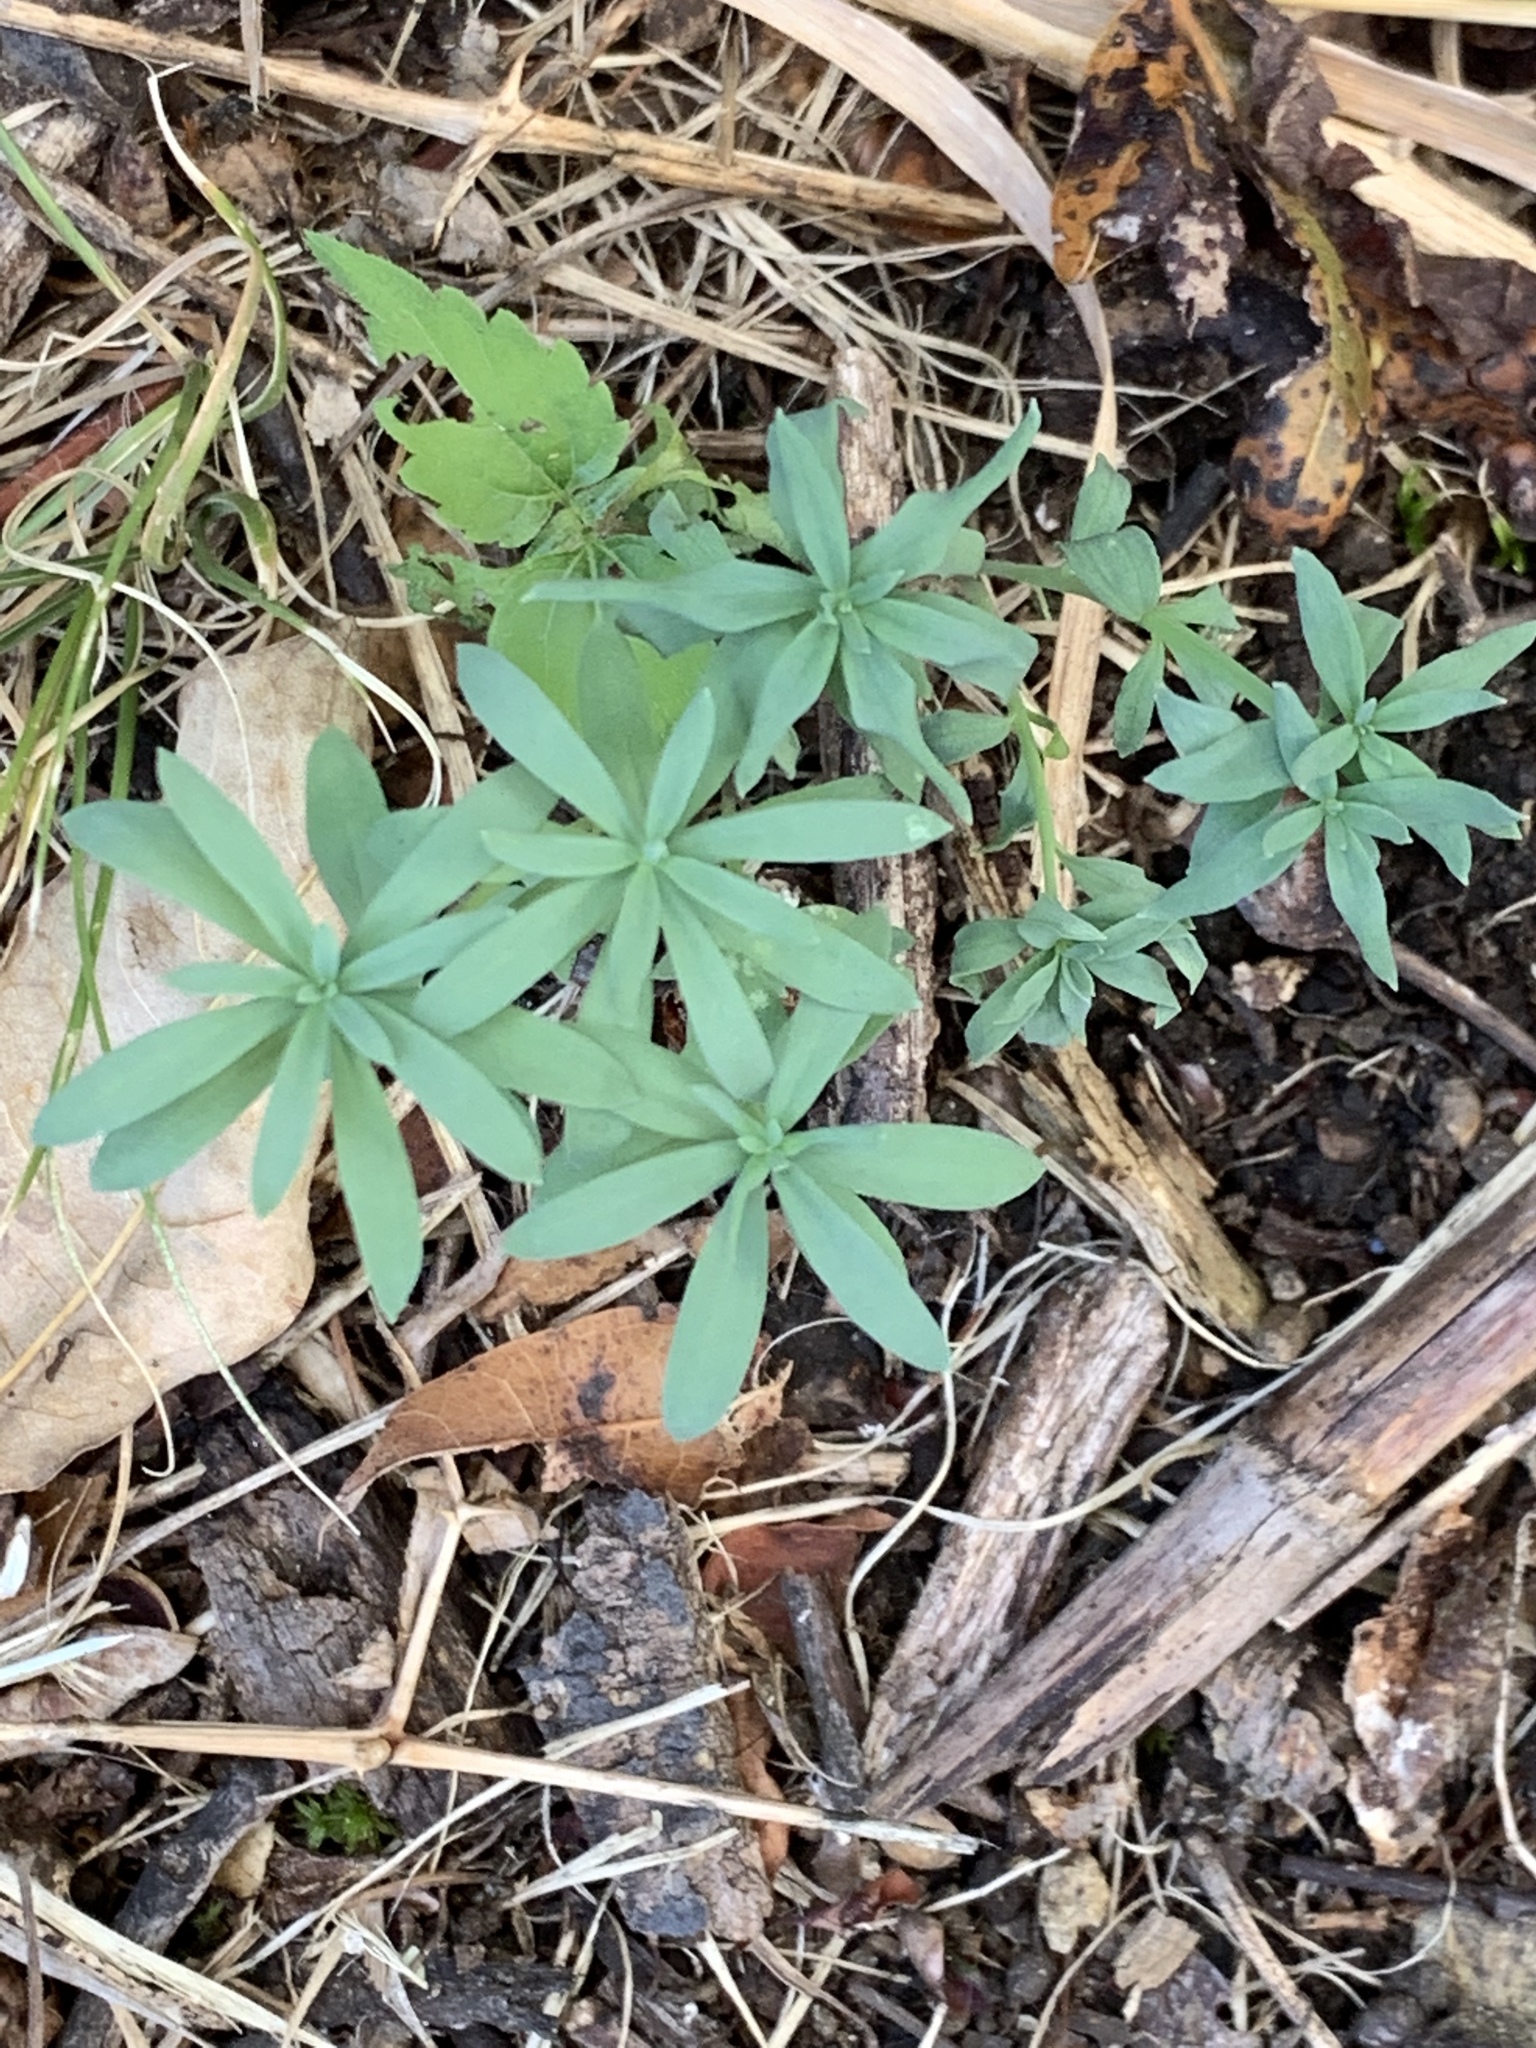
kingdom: Plantae
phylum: Tracheophyta
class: Magnoliopsida
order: Lamiales
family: Plantaginaceae
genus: Linaria
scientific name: Linaria vulgaris
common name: Butter and eggs
